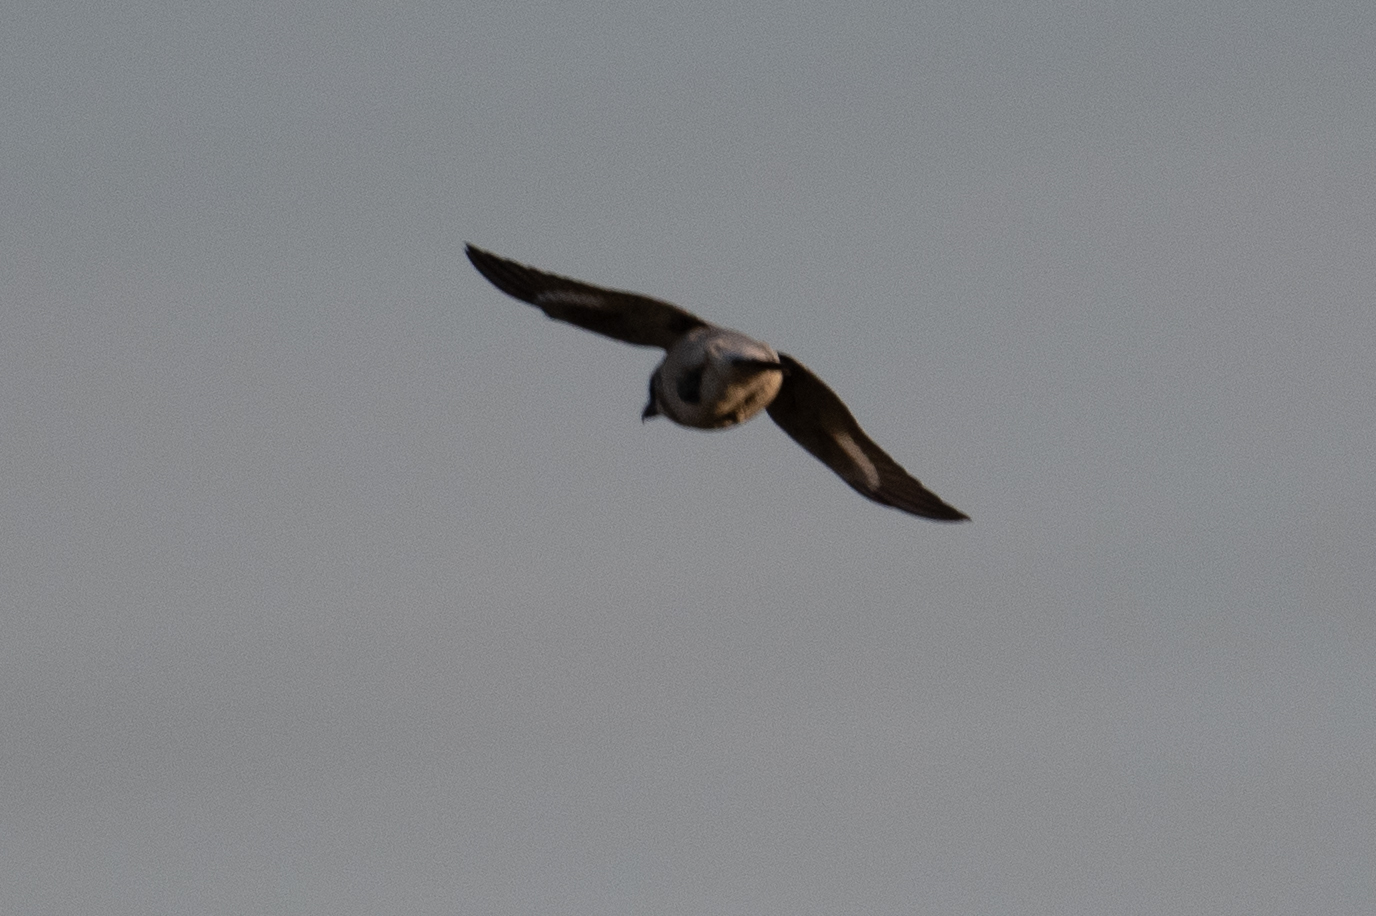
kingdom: Animalia
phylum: Chordata
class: Aves
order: Passeriformes
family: Laniidae
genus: Lanius
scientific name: Lanius ludovicianus
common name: Loggerhead shrike
